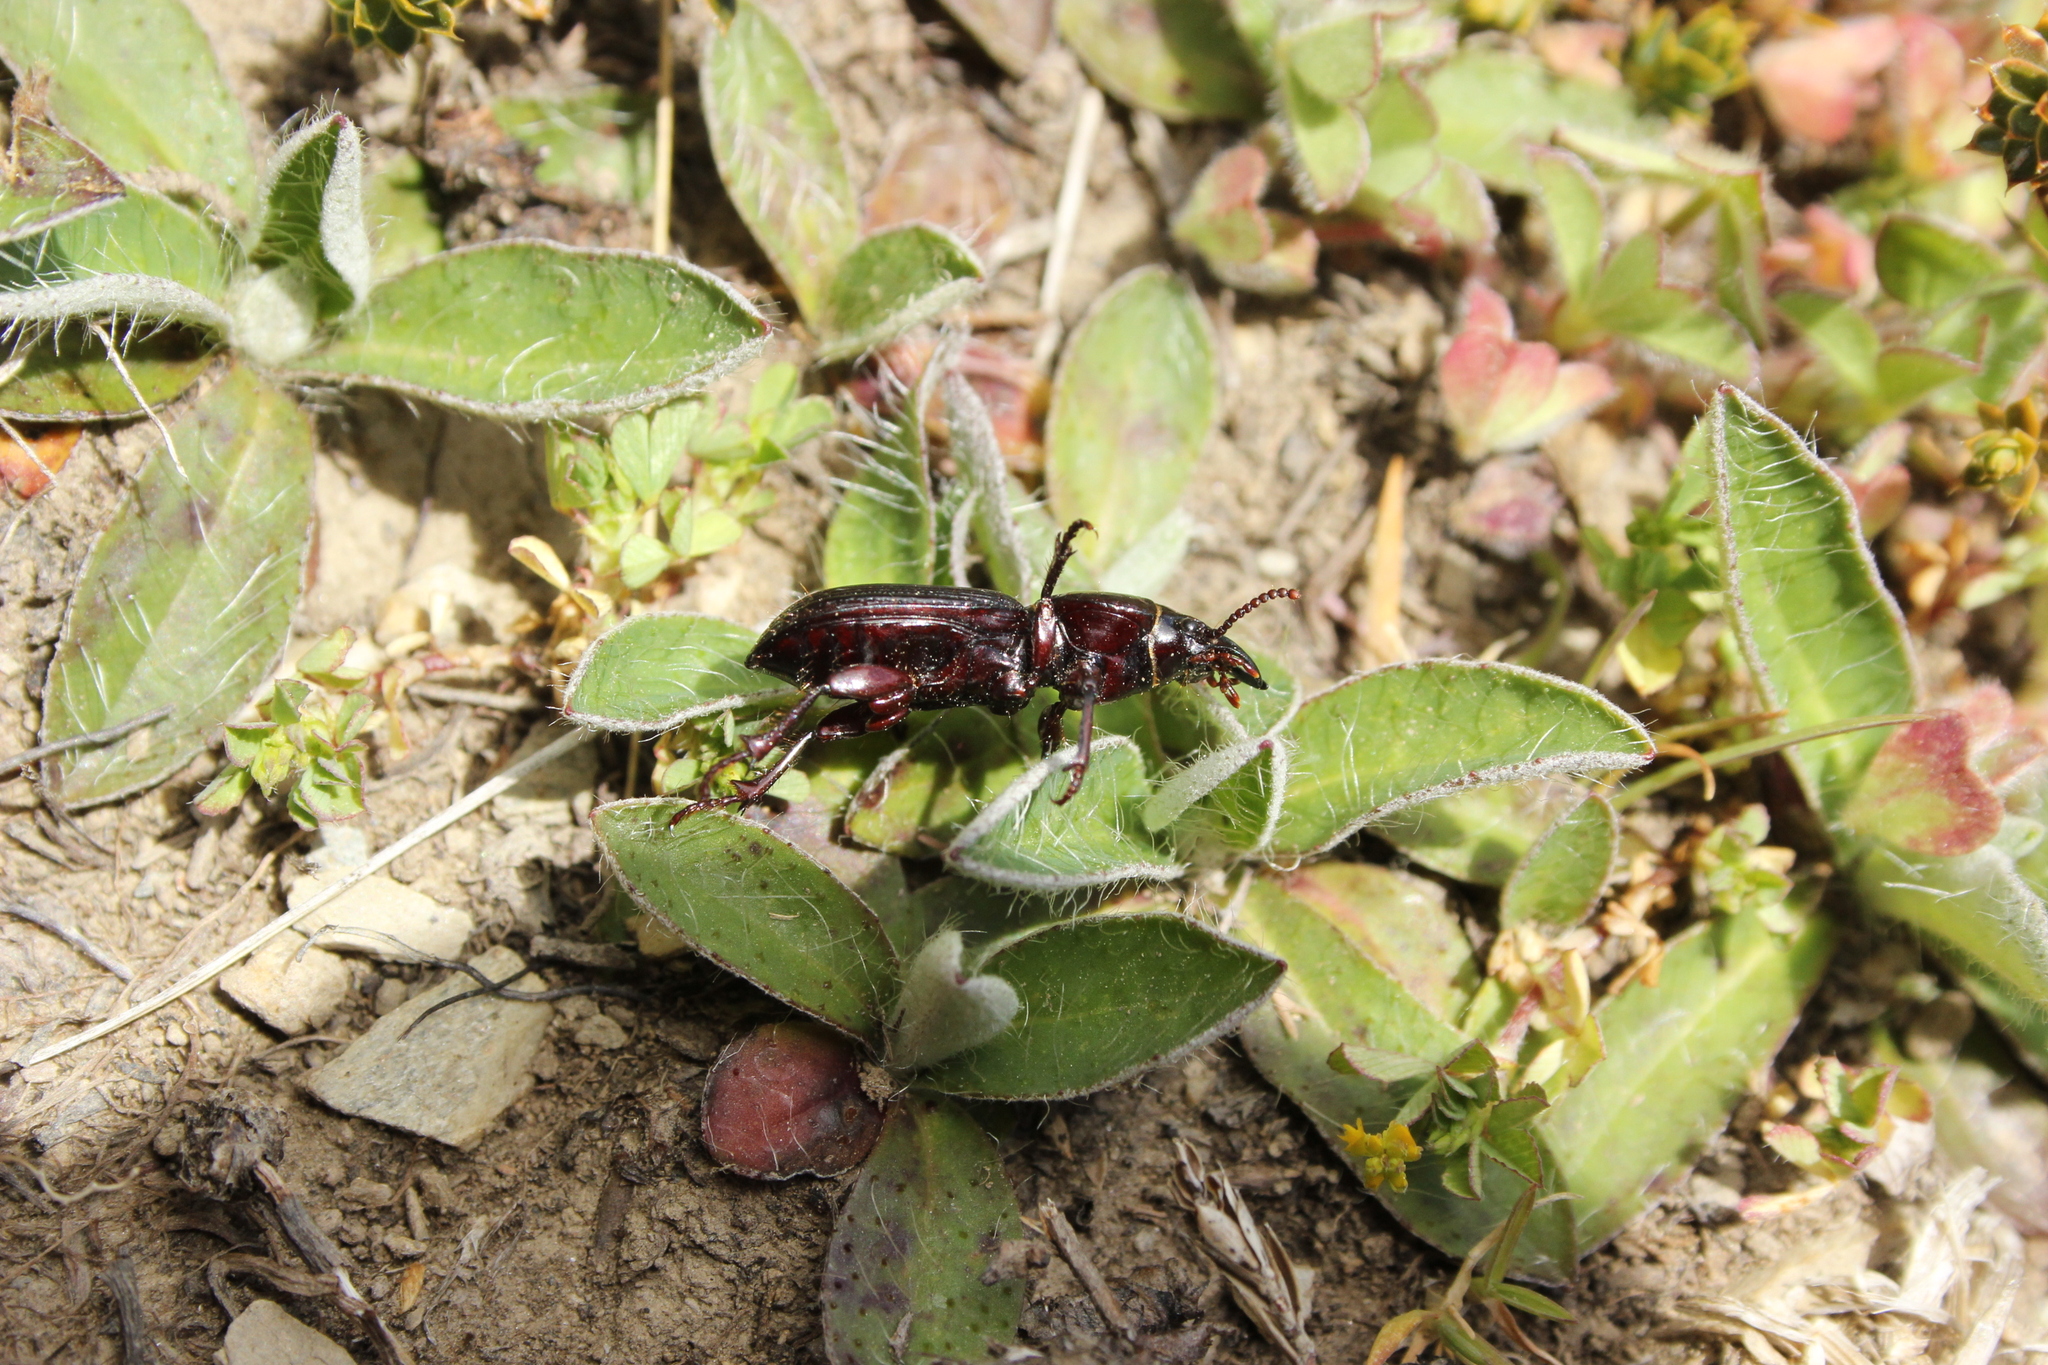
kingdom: Animalia
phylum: Arthropoda
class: Insecta
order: Coleoptera
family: Carabidae
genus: Mecodema
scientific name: Mecodema tibiale
